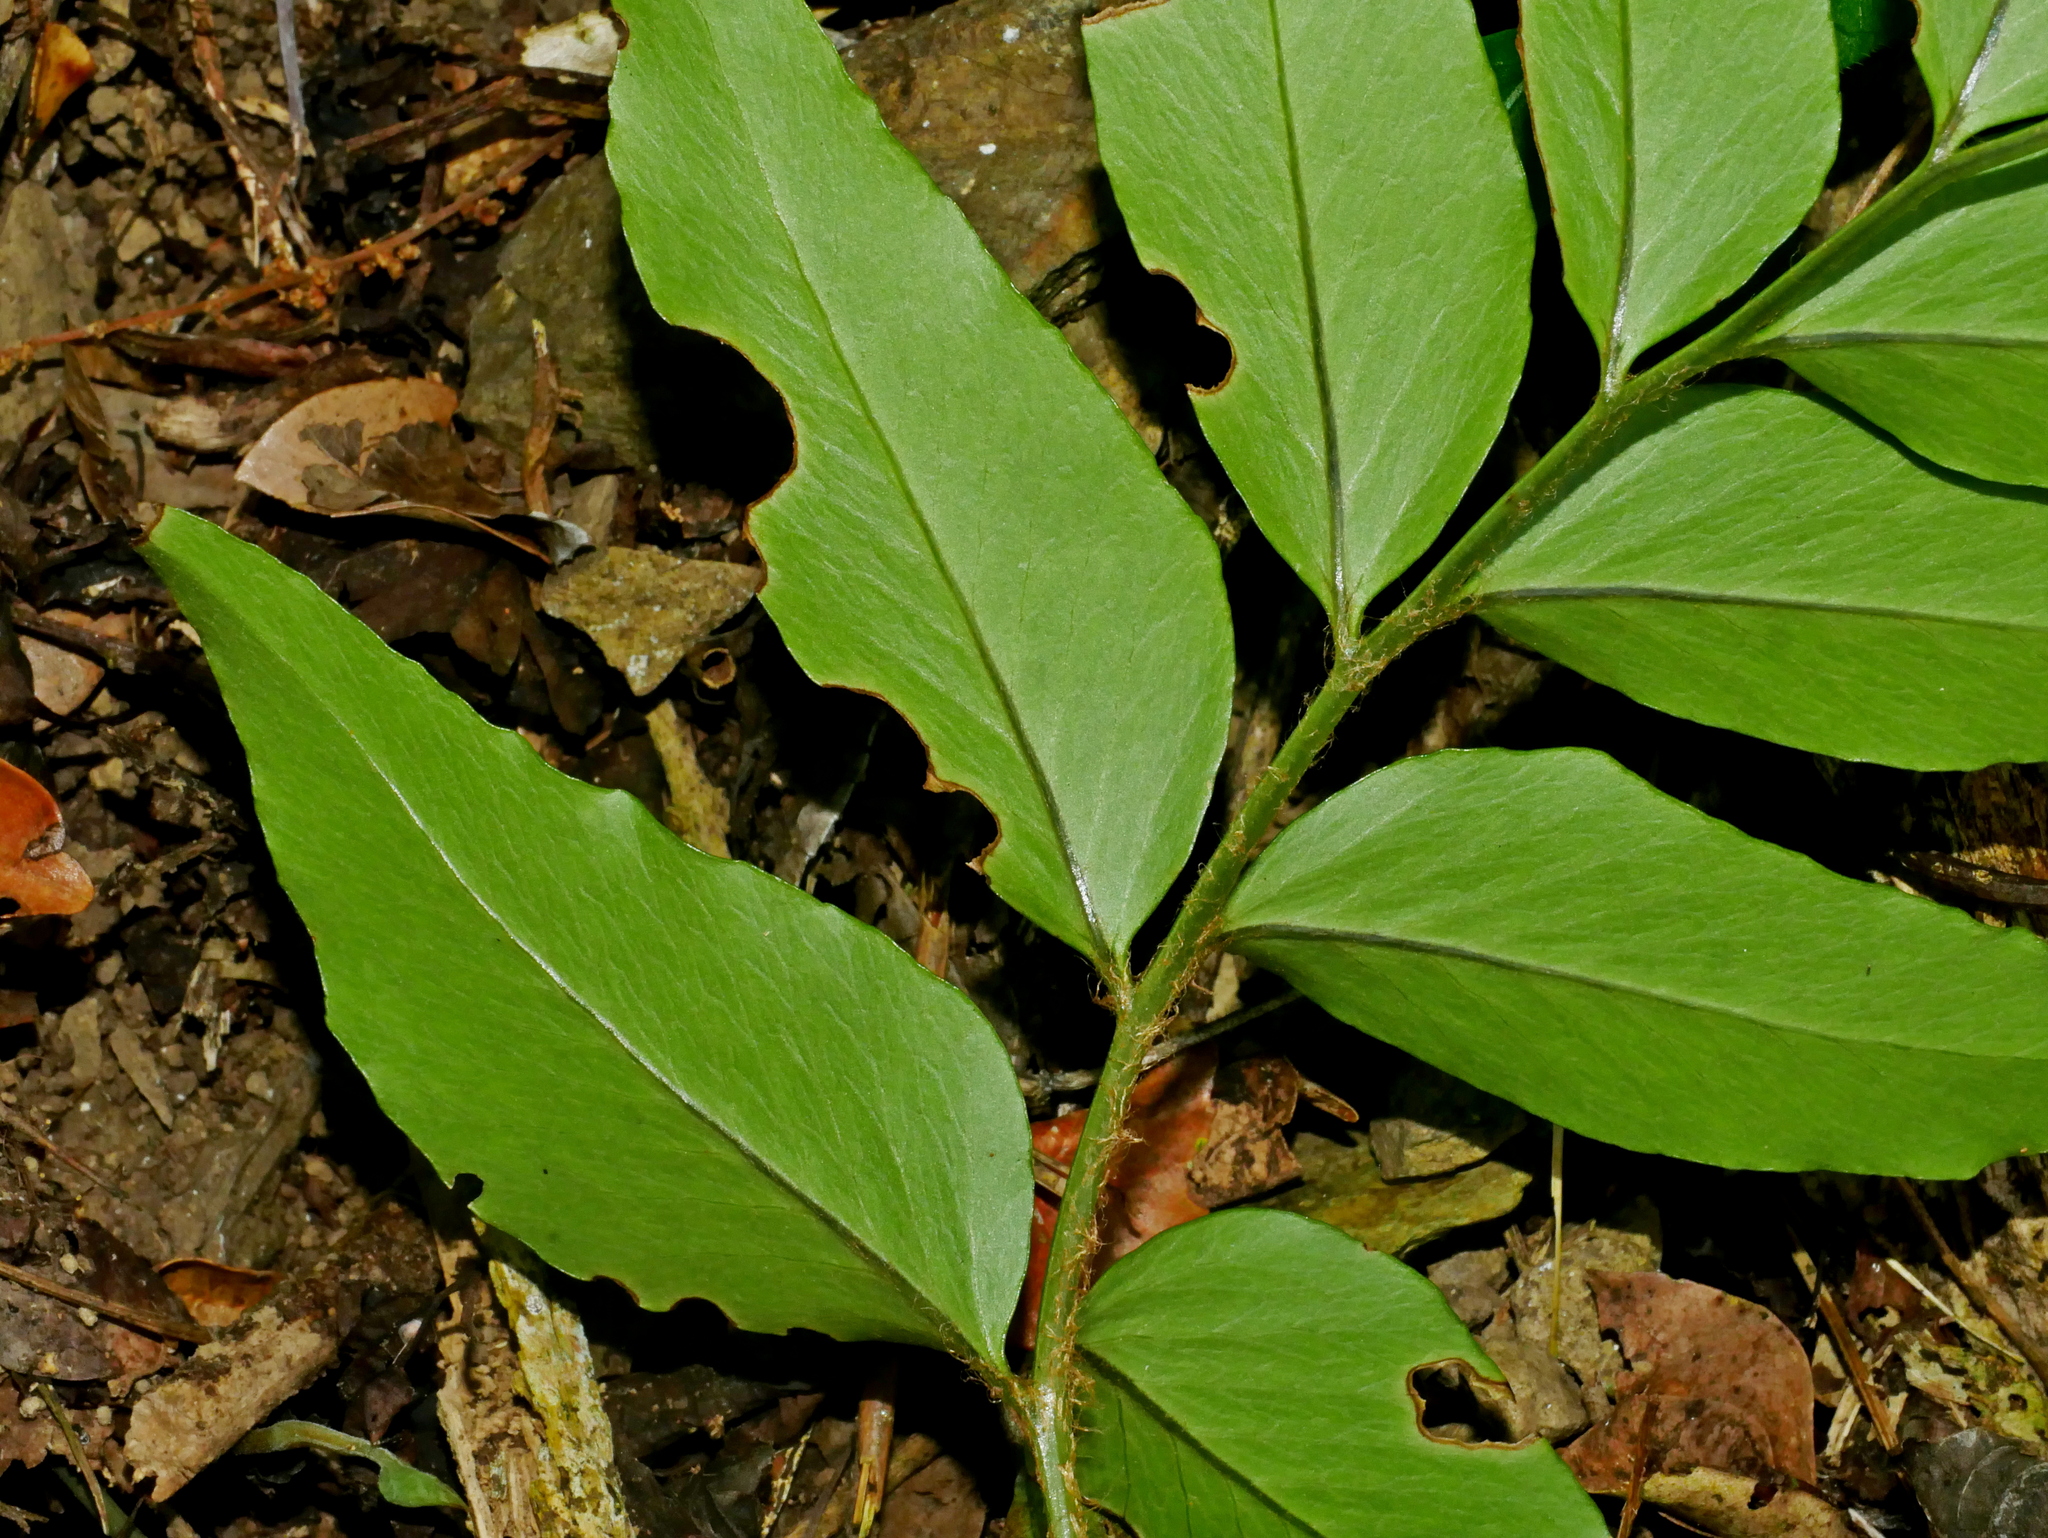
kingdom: Plantae
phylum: Tracheophyta
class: Polypodiopsida
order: Polypodiales
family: Dryopteridaceae
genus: Cyrtomium
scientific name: Cyrtomium devexiscapulae
